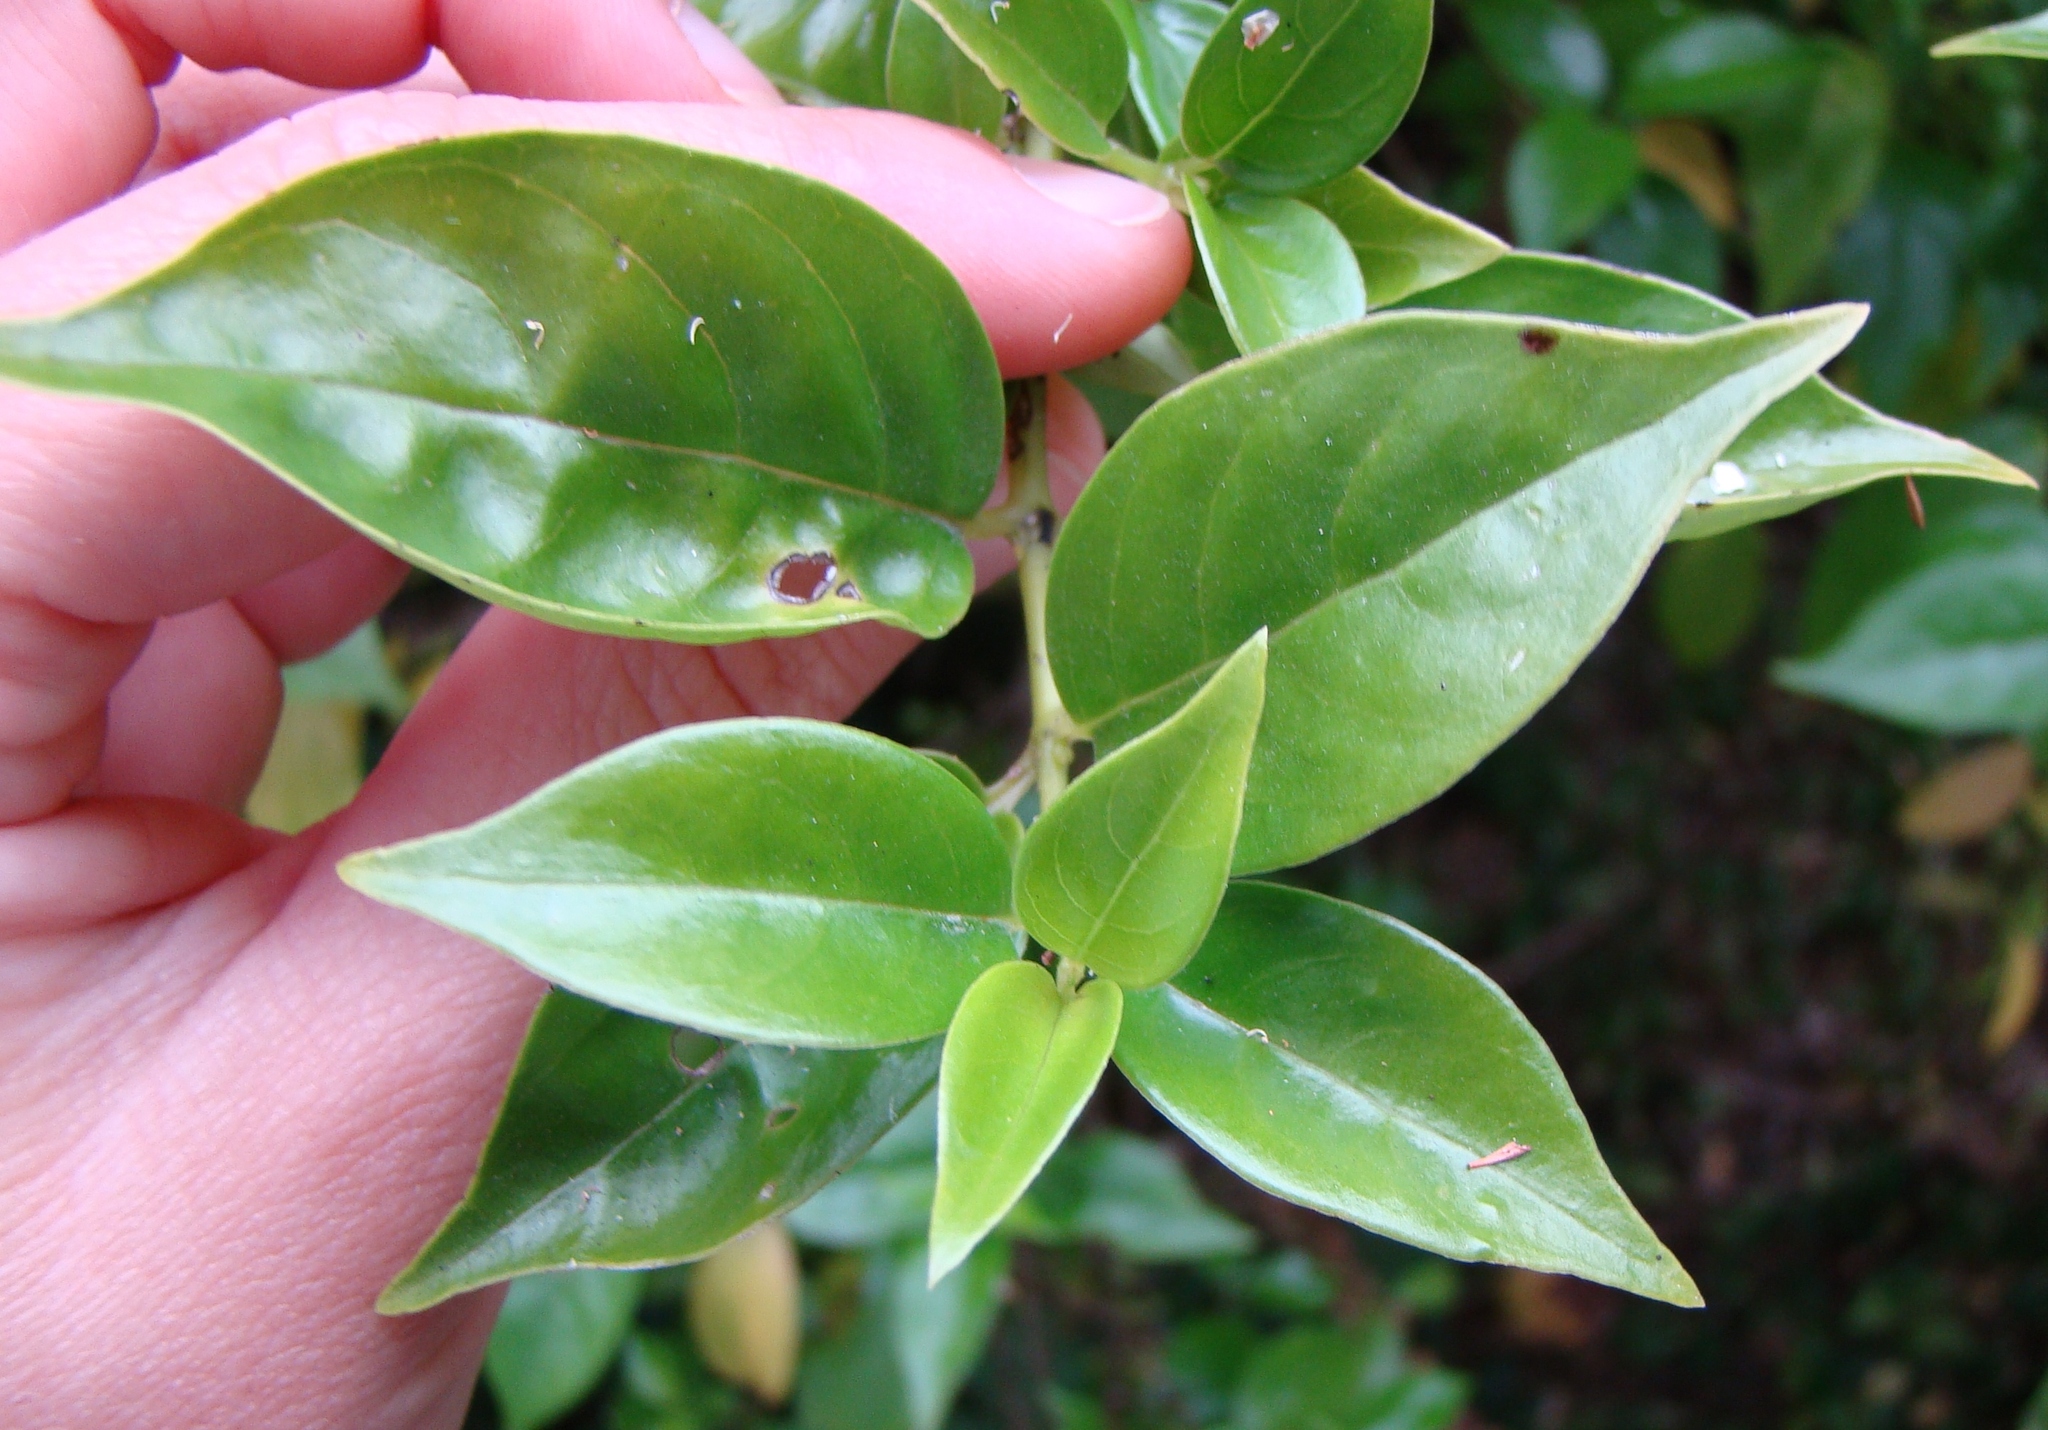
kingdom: Plantae
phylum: Tracheophyta
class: Magnoliopsida
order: Gentianales
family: Loganiaceae
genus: Geniostoma
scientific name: Geniostoma ligustrifolium
